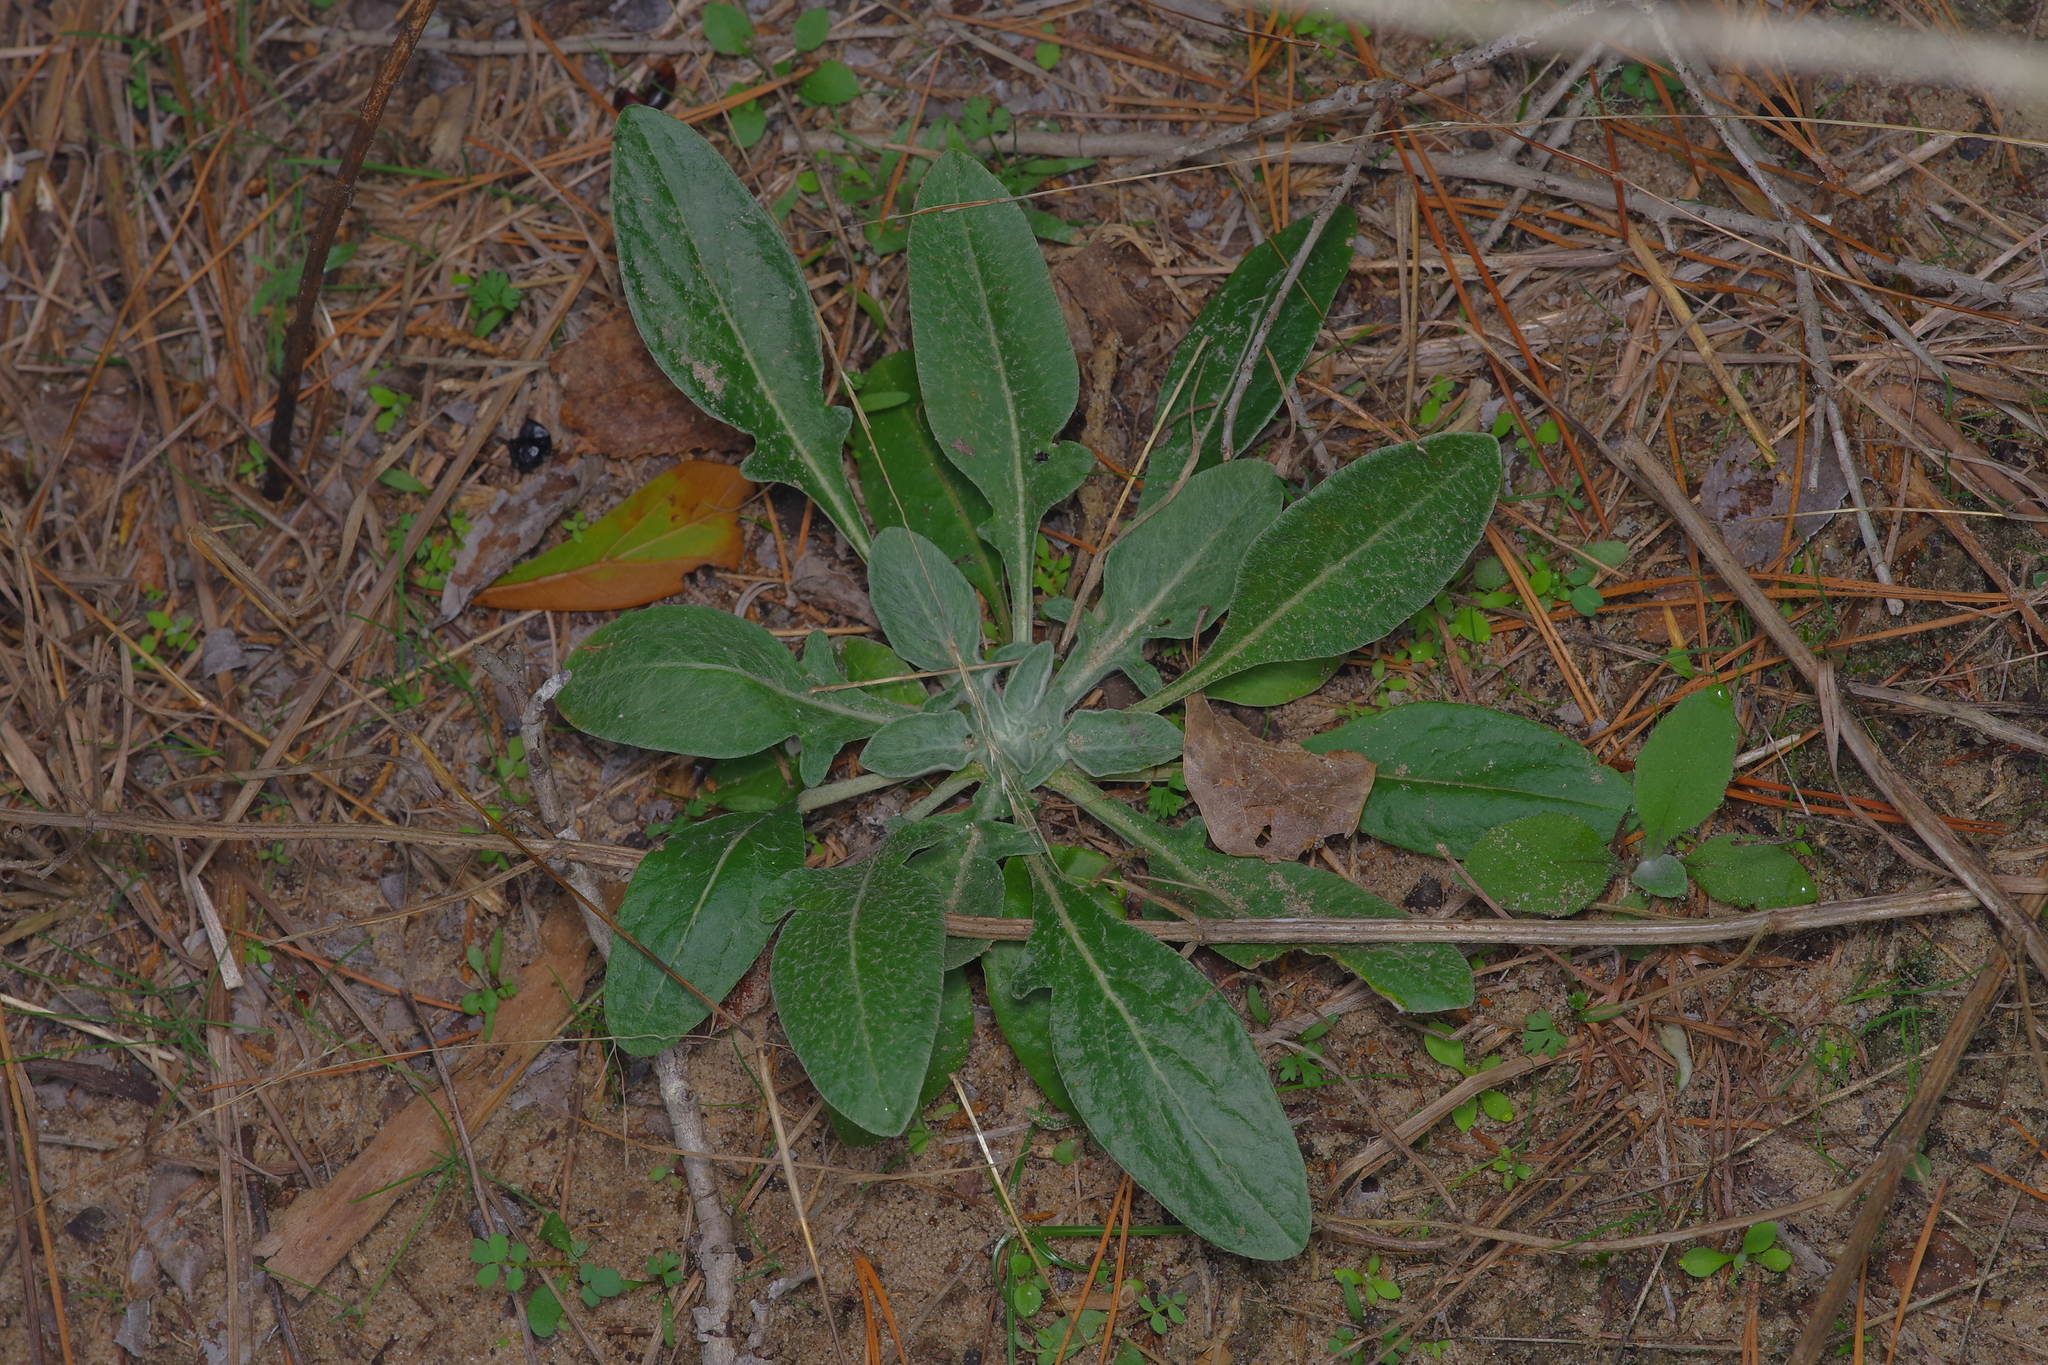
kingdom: Plantae
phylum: Tracheophyta
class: Magnoliopsida
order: Asterales
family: Asteraceae
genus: Hymenopappus
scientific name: Hymenopappus artemisiifolius
